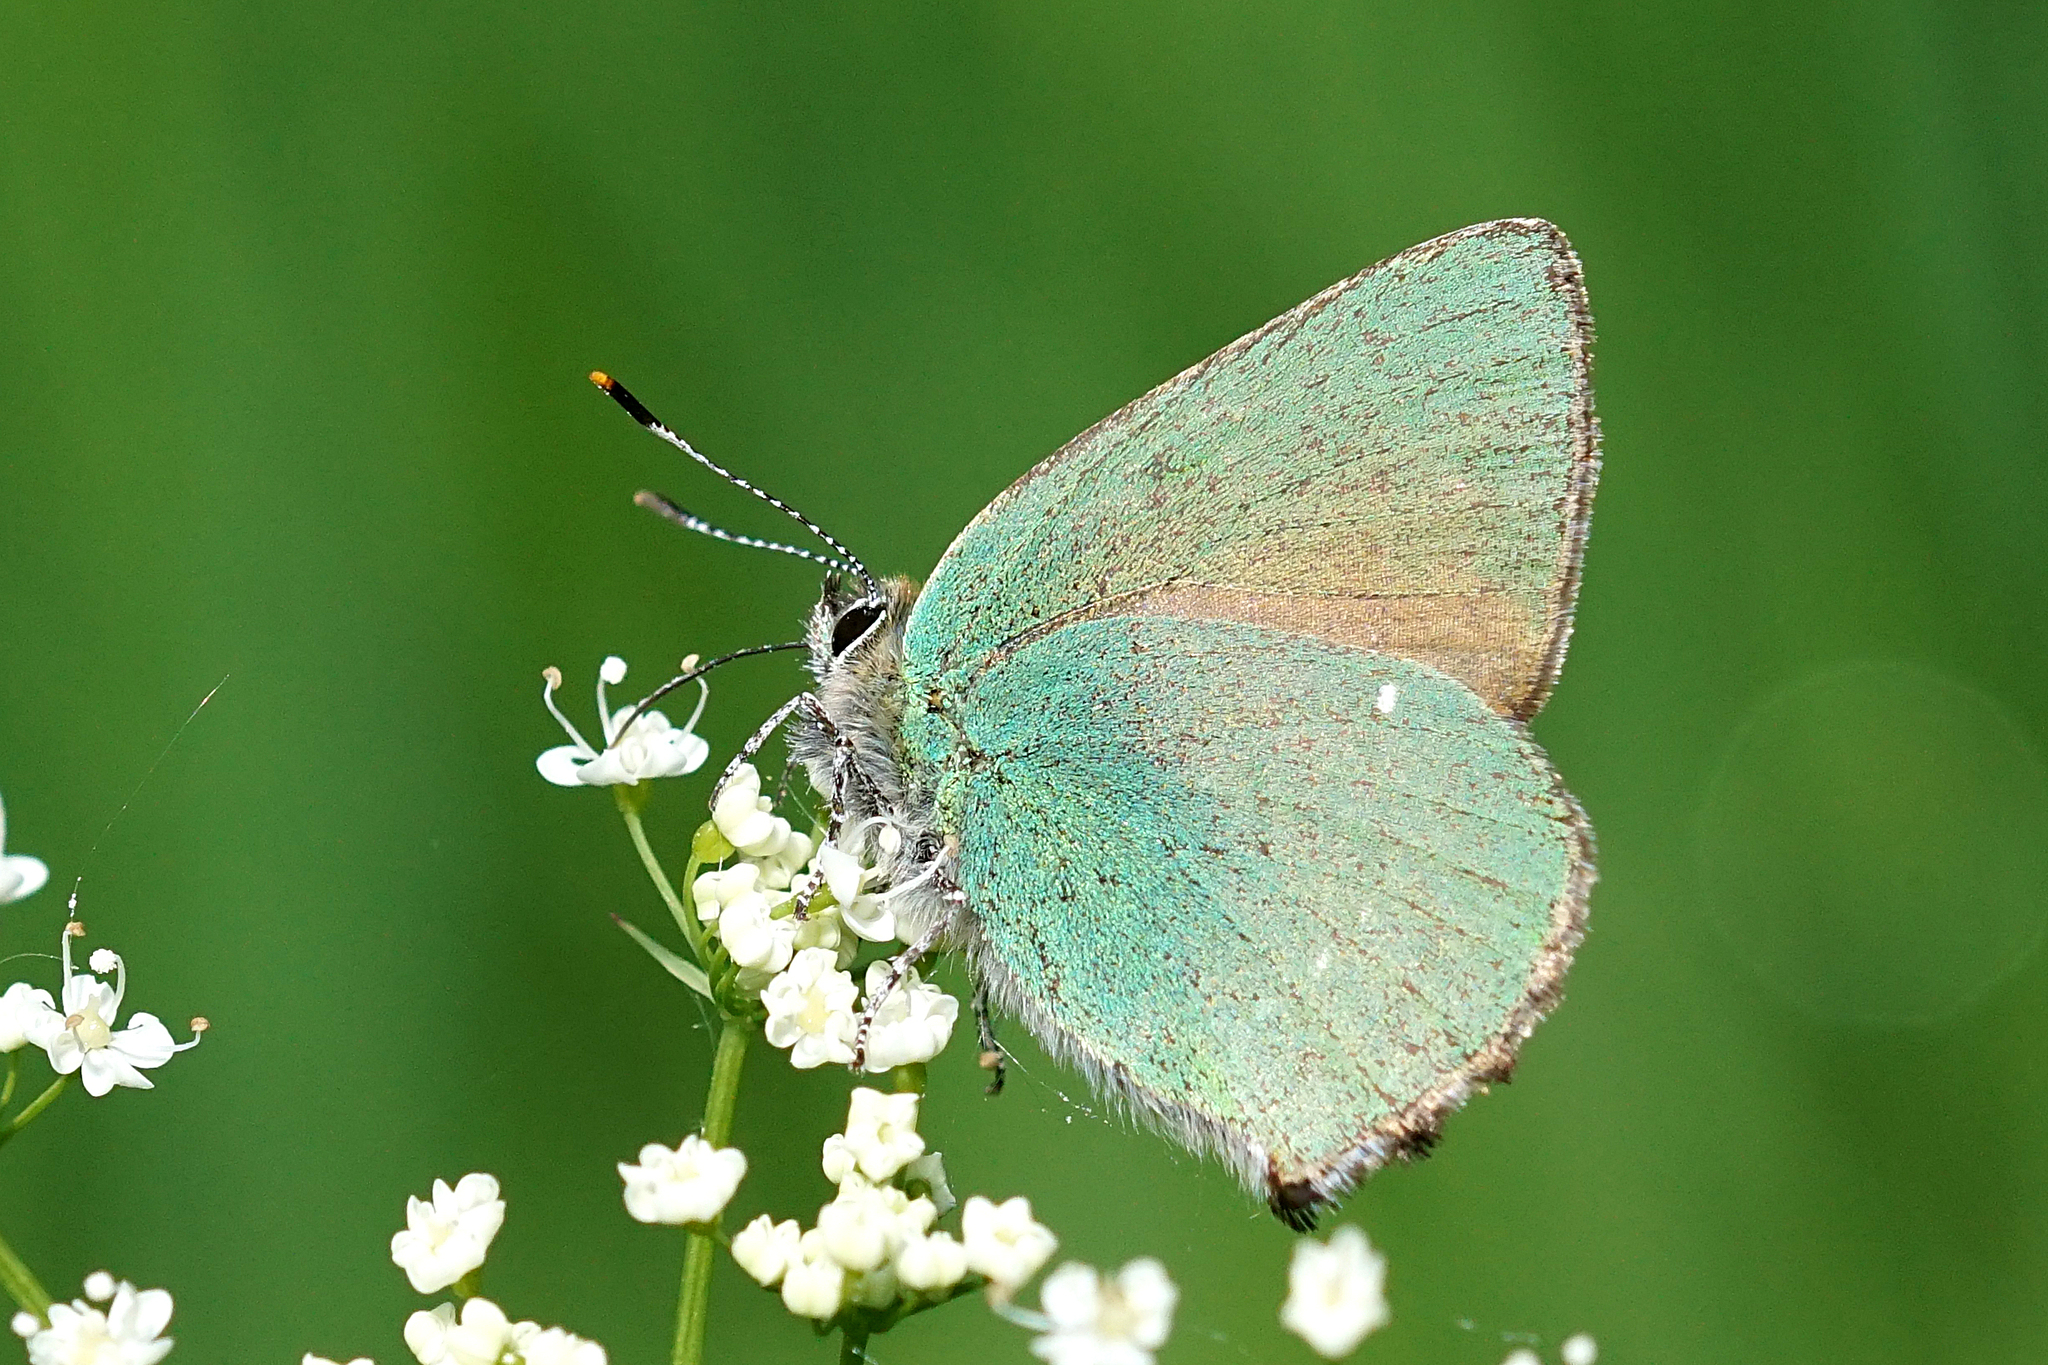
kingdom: Animalia
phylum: Arthropoda
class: Insecta
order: Lepidoptera
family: Lycaenidae
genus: Callophrys
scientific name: Callophrys rubi
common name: Green hairstreak
